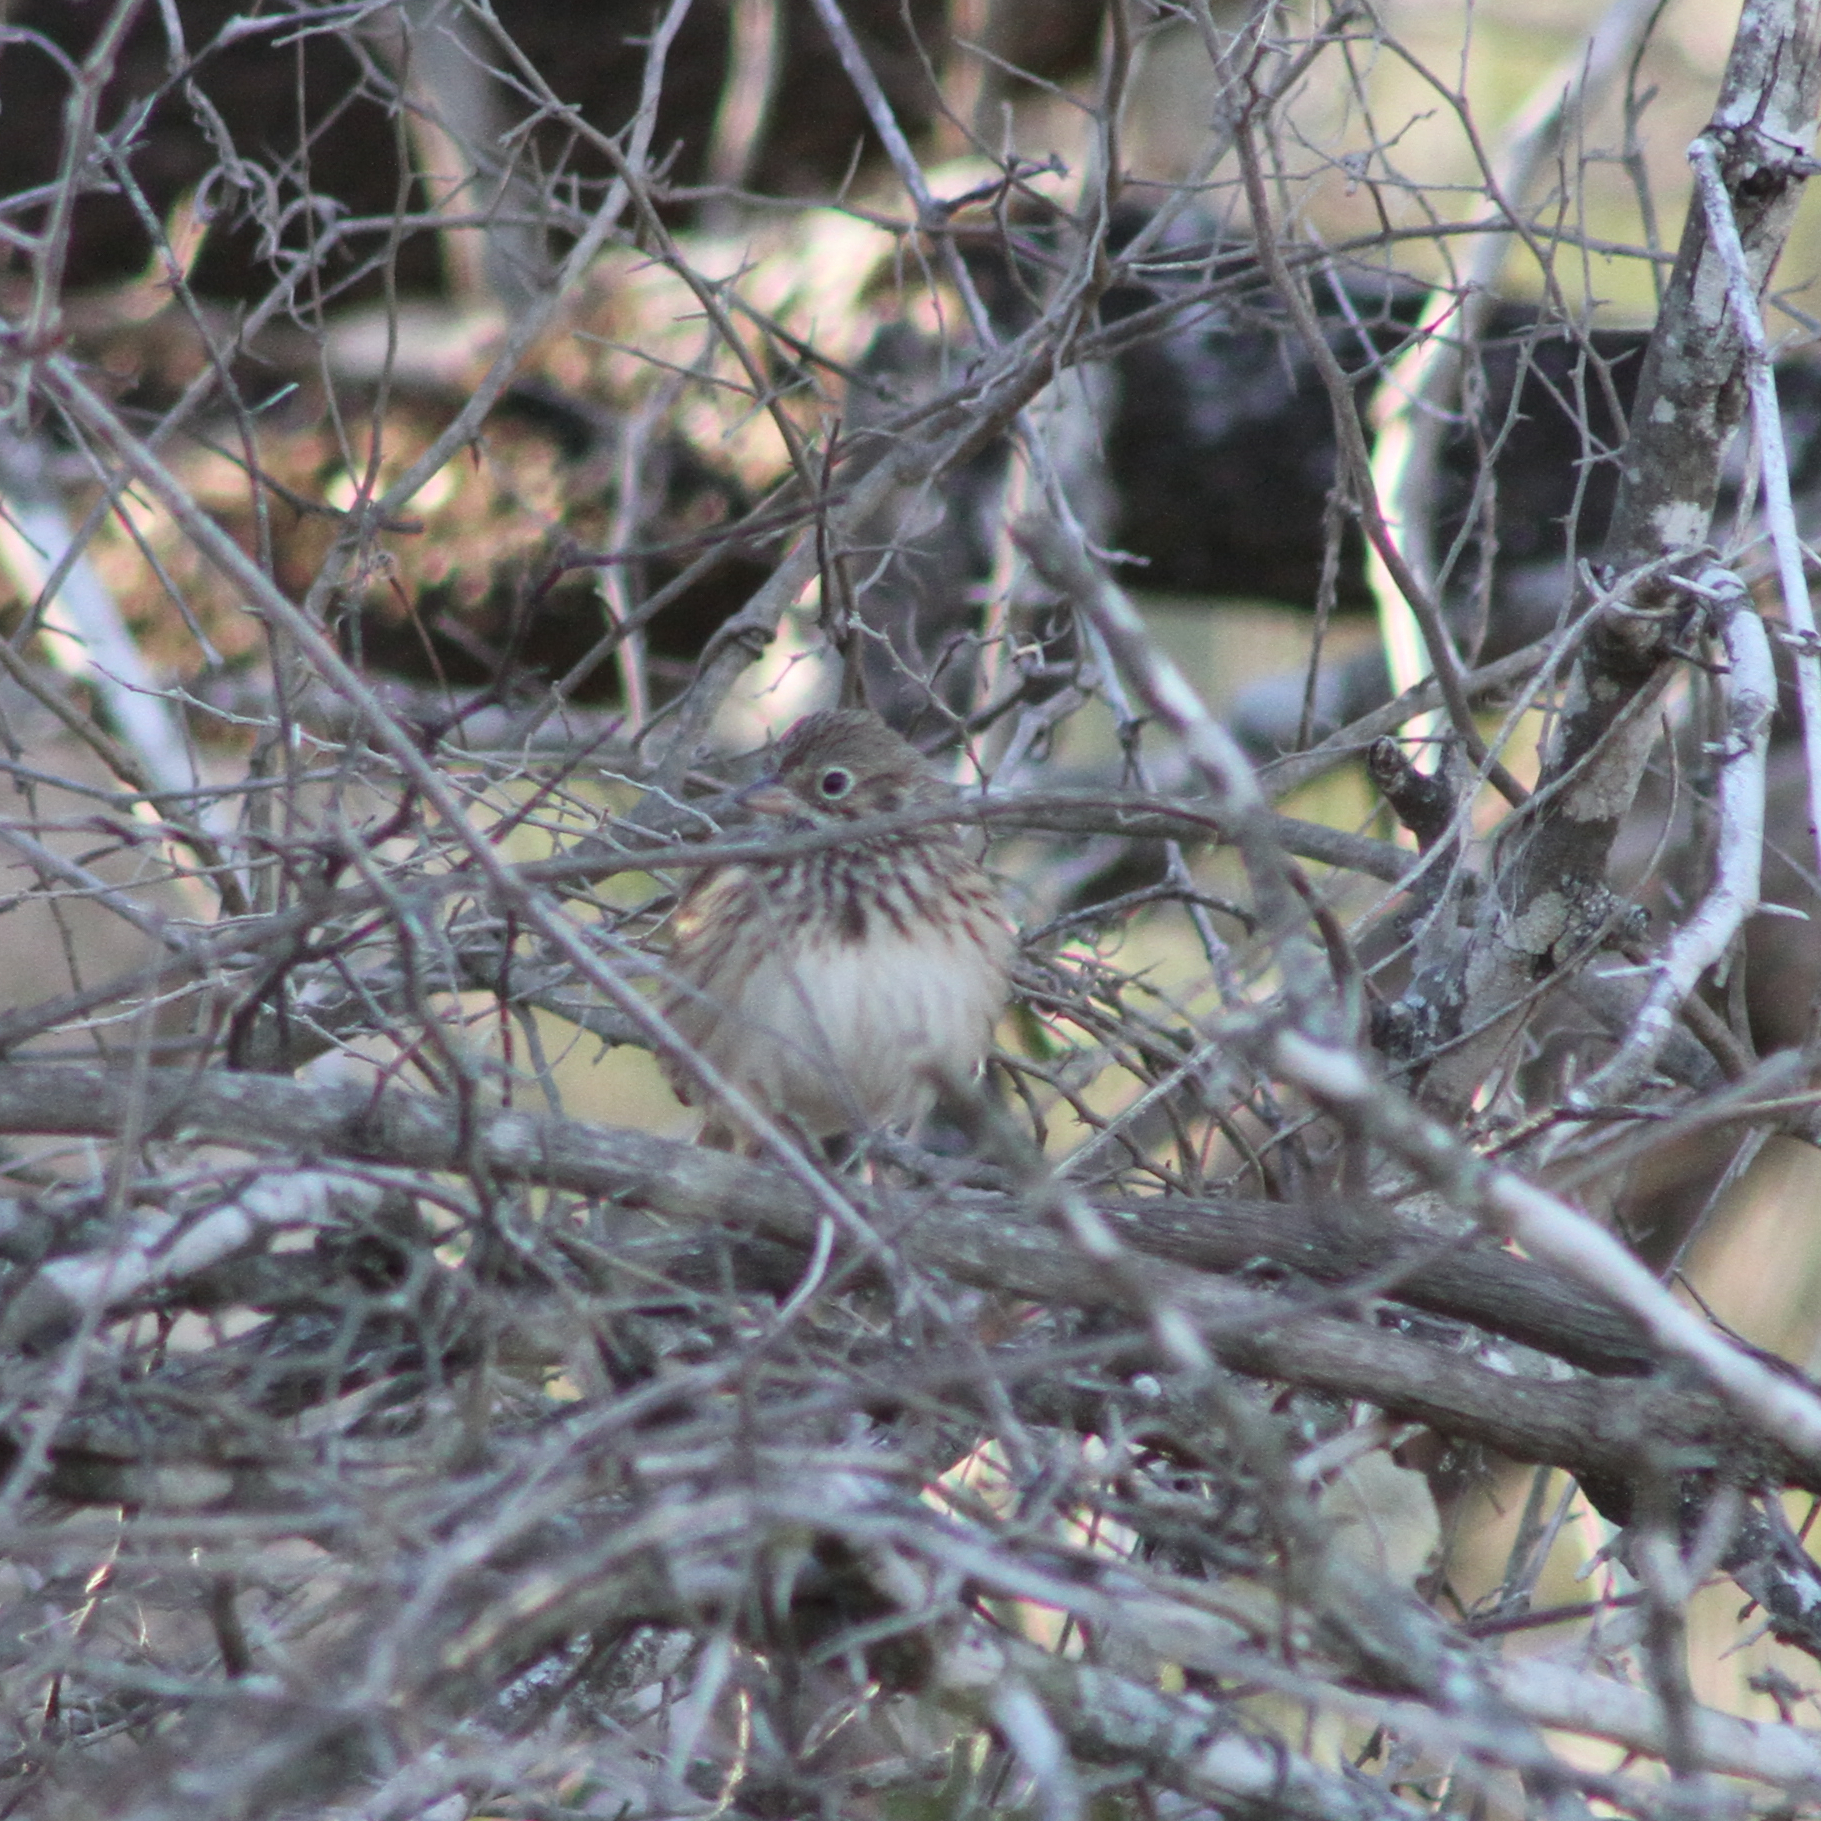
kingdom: Animalia
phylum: Chordata
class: Aves
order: Passeriformes
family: Passerellidae
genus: Pooecetes
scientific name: Pooecetes gramineus
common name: Vesper sparrow
